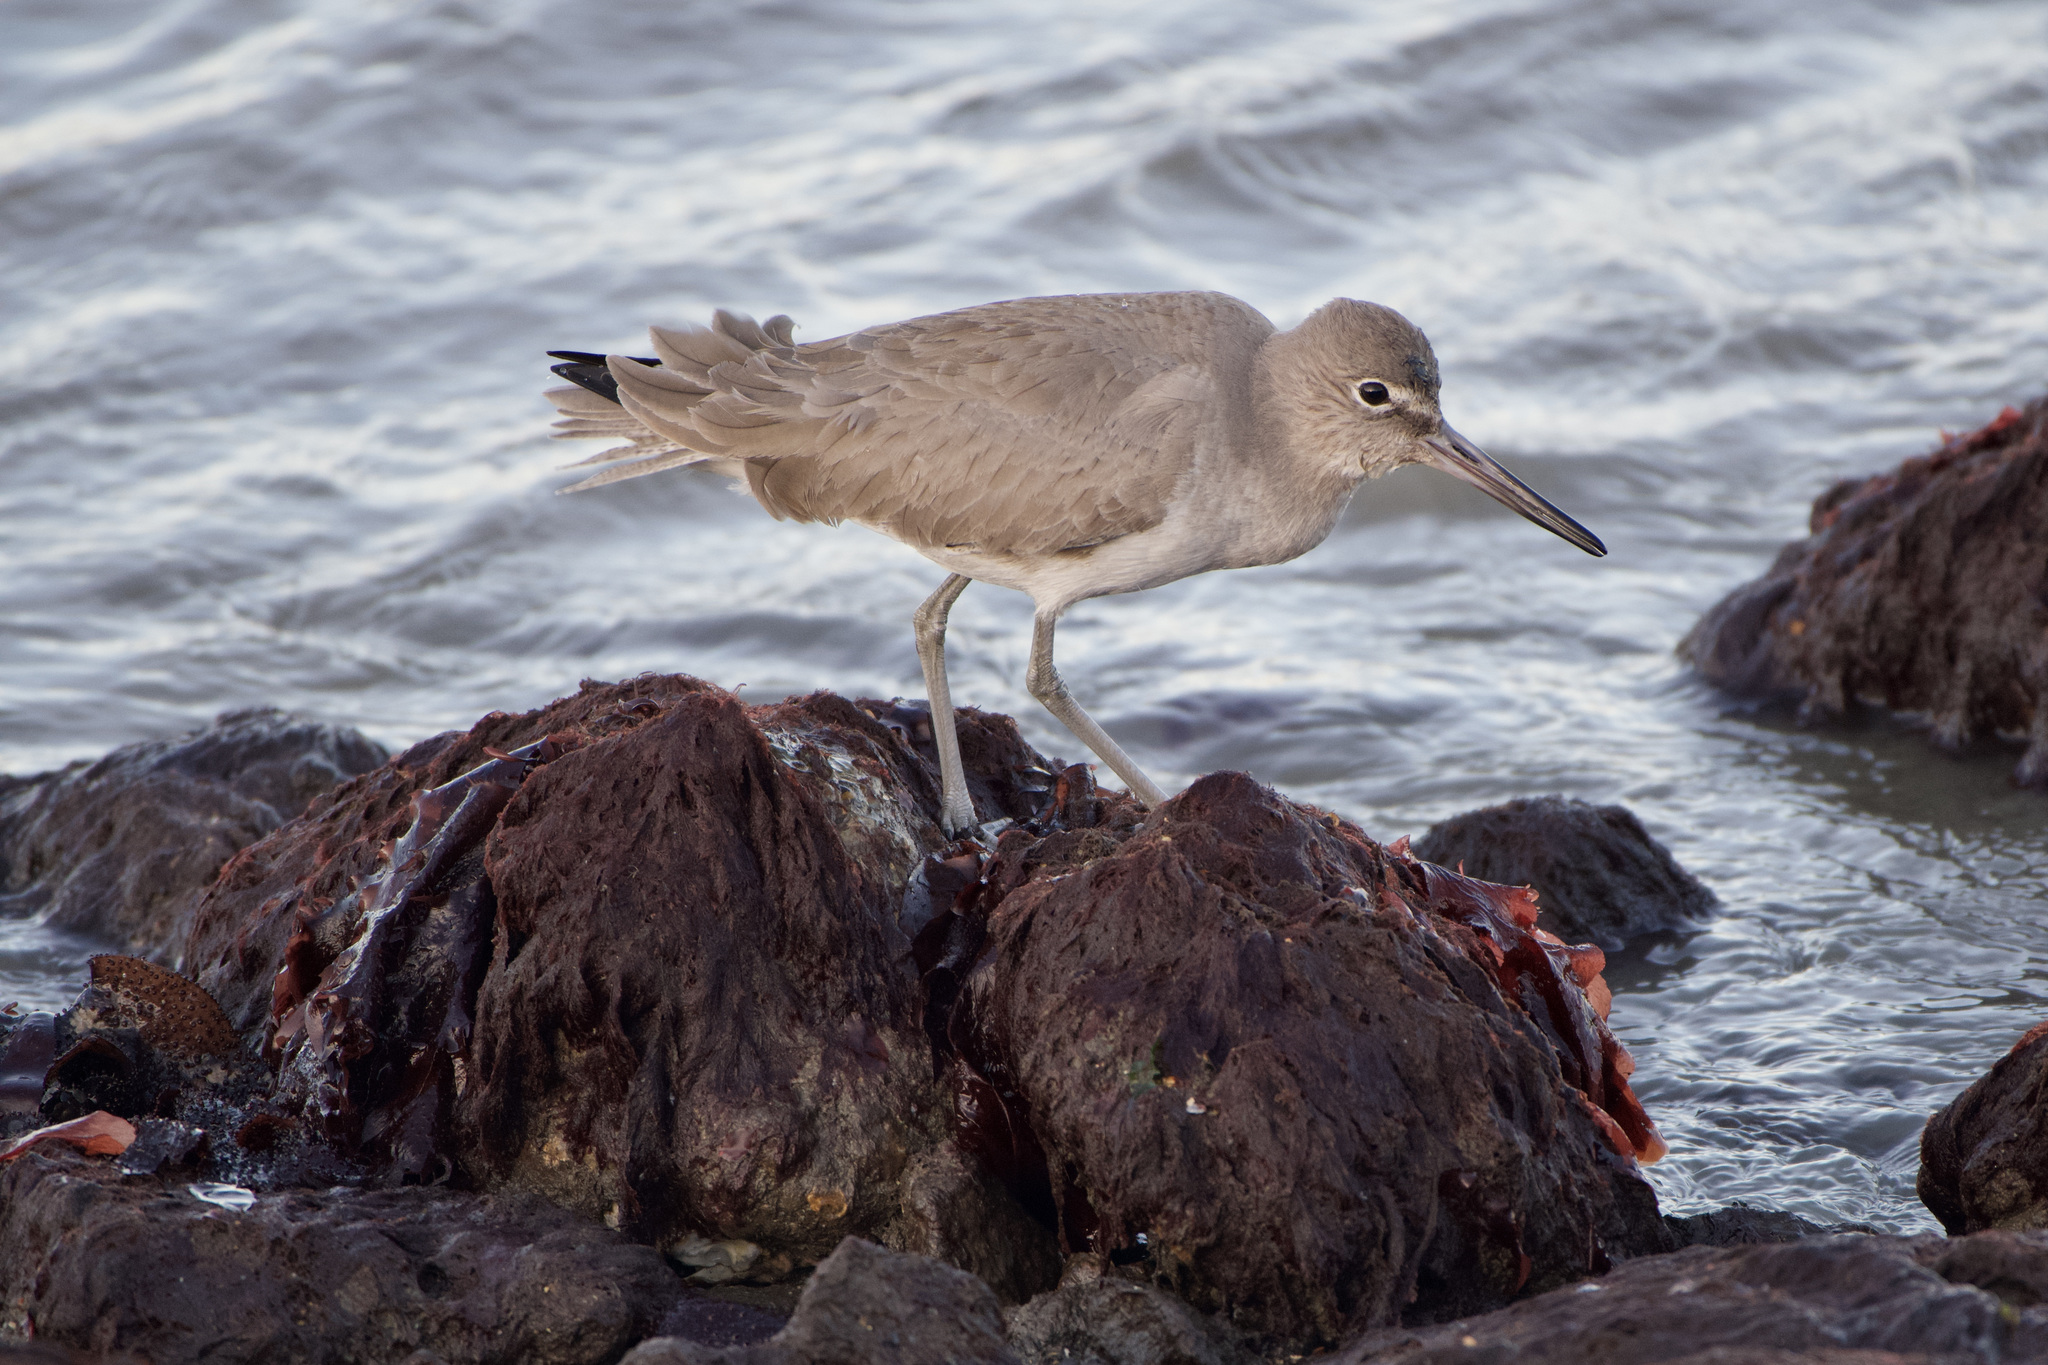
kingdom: Animalia
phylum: Chordata
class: Aves
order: Charadriiformes
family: Scolopacidae
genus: Tringa
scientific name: Tringa semipalmata
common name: Willet
